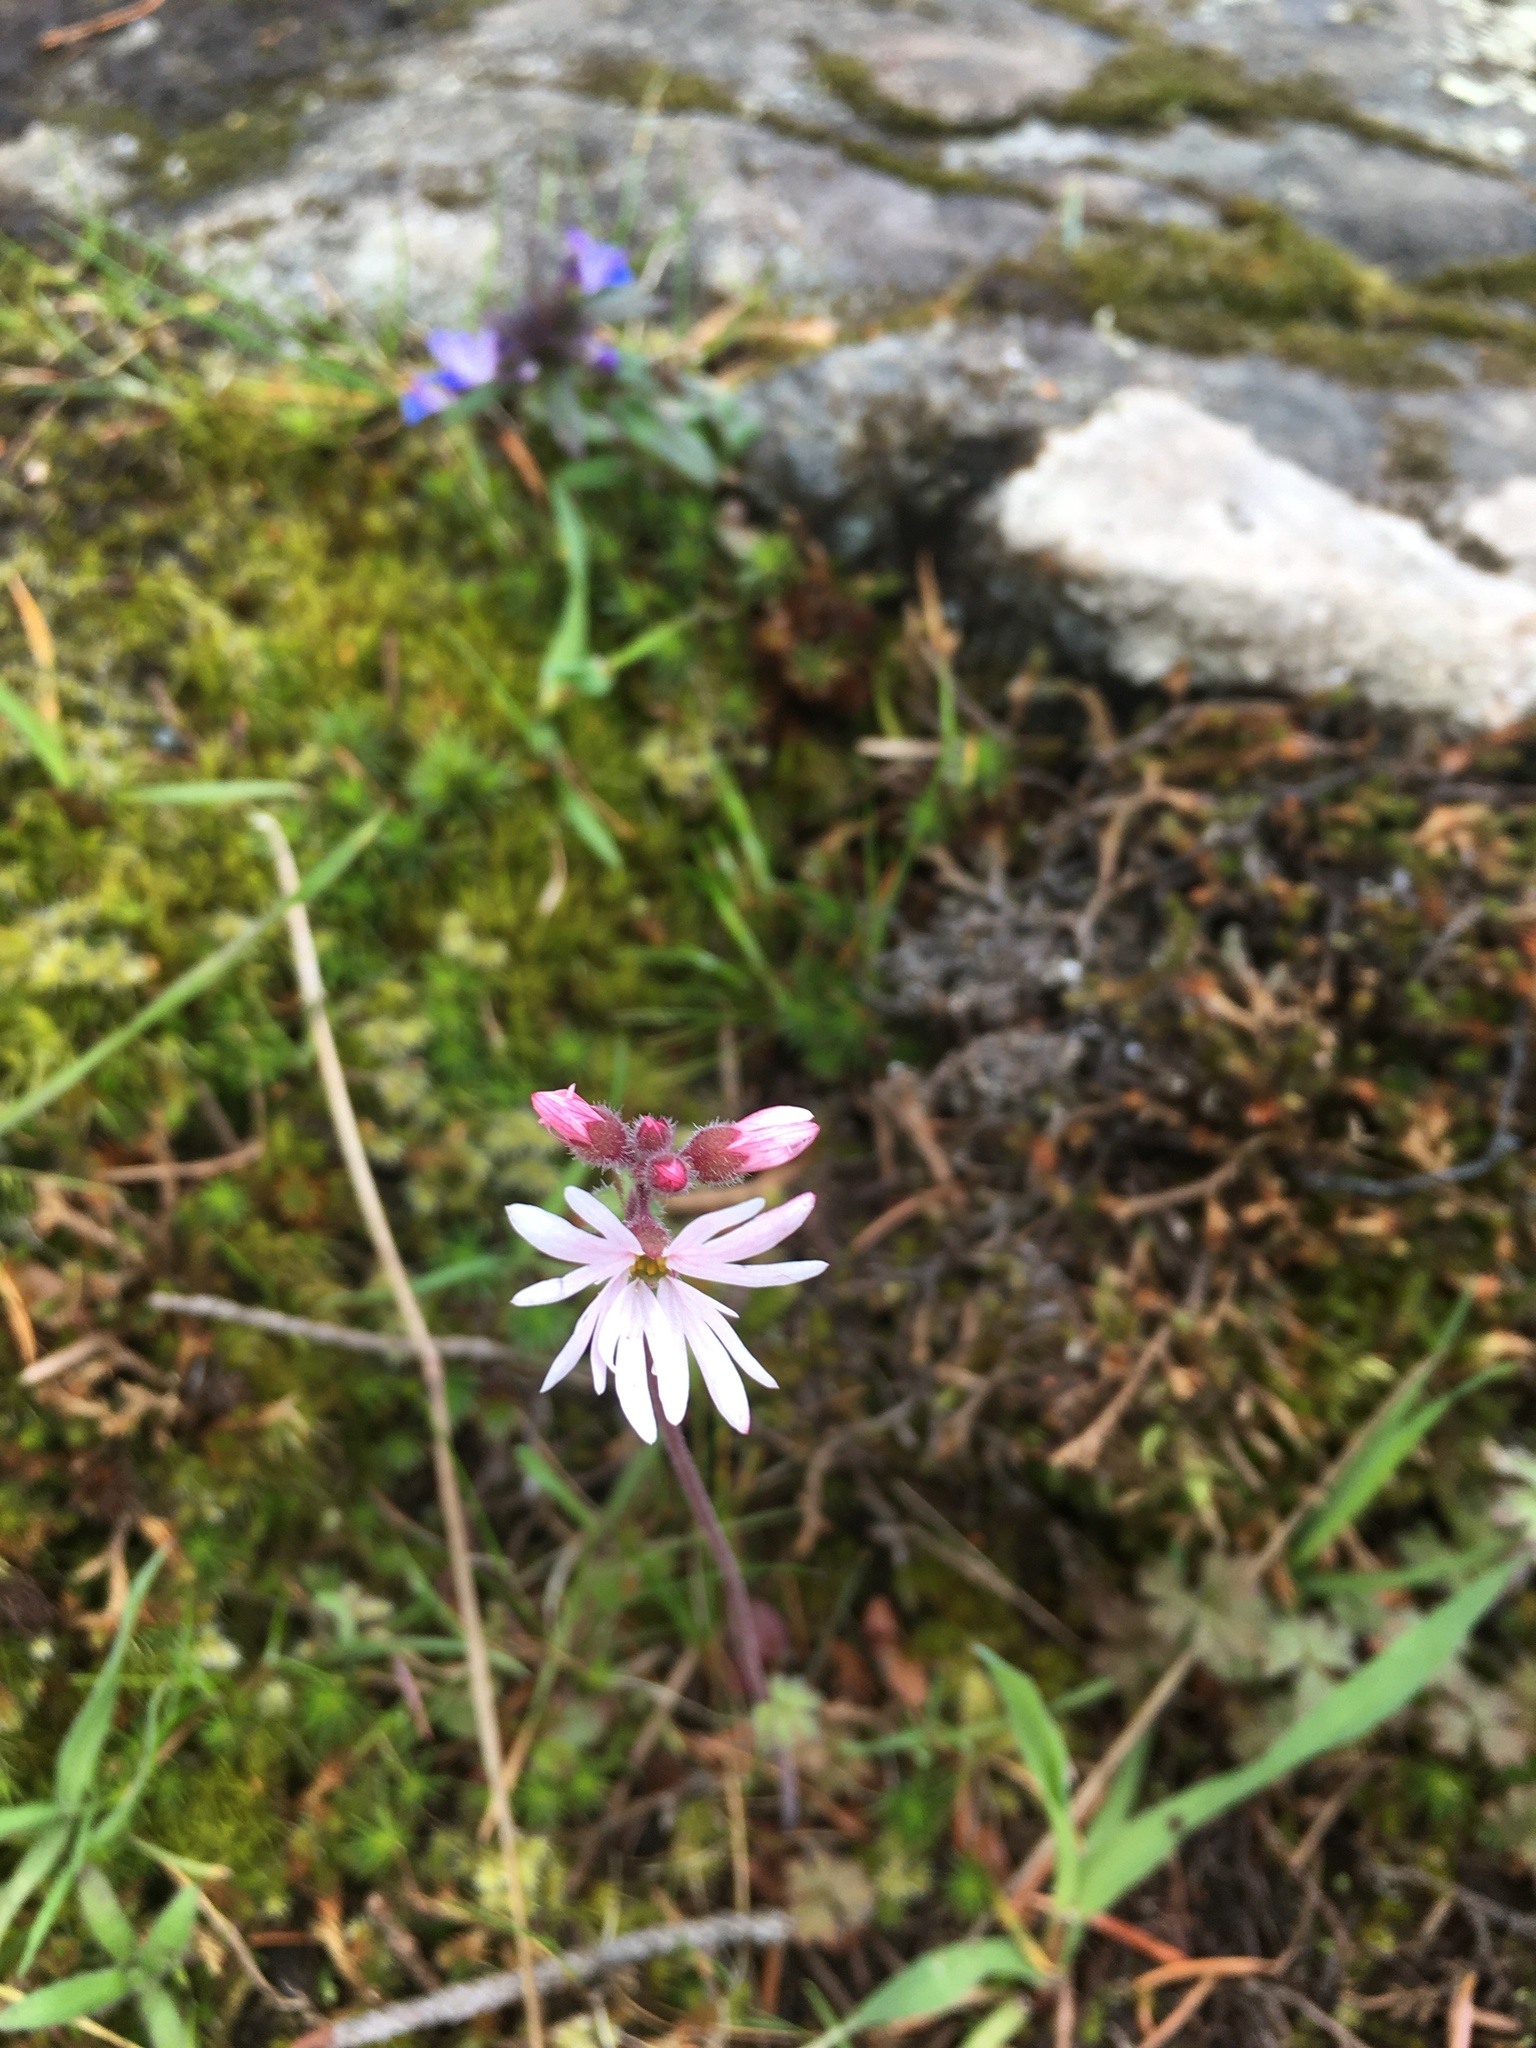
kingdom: Plantae
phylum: Tracheophyta
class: Magnoliopsida
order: Saxifragales
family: Saxifragaceae
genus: Lithophragma
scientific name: Lithophragma parviflorum
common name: Small-flowered fringe-cup
